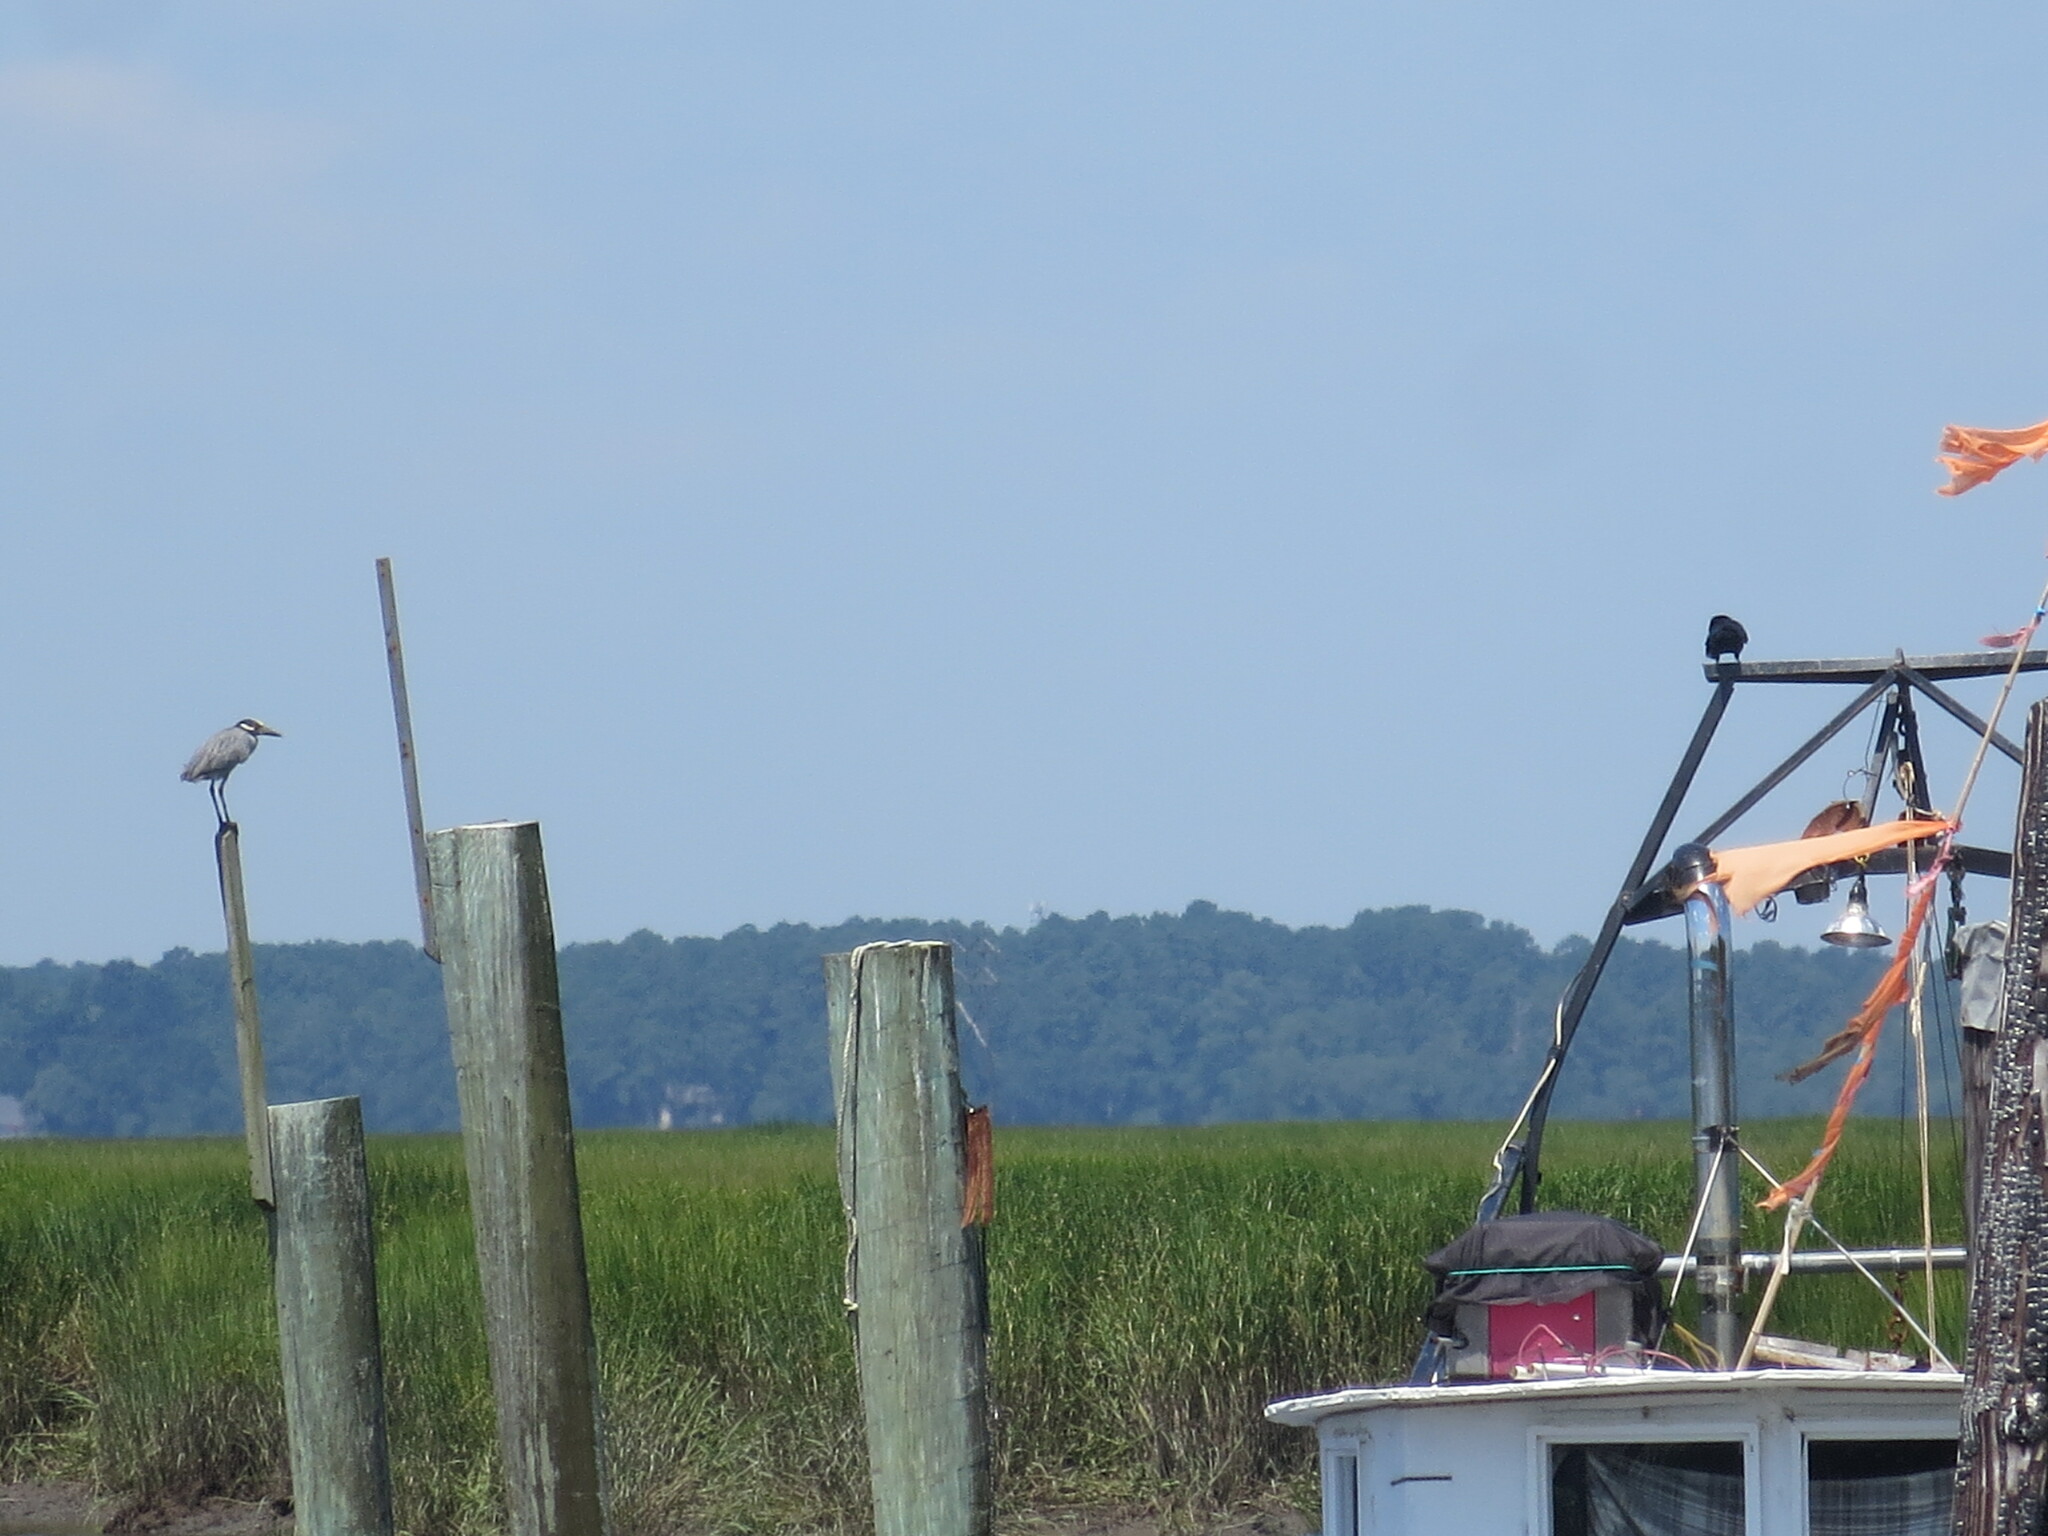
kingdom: Animalia
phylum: Chordata
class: Aves
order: Pelecaniformes
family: Ardeidae
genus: Nyctanassa
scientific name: Nyctanassa violacea
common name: Yellow-crowned night heron
